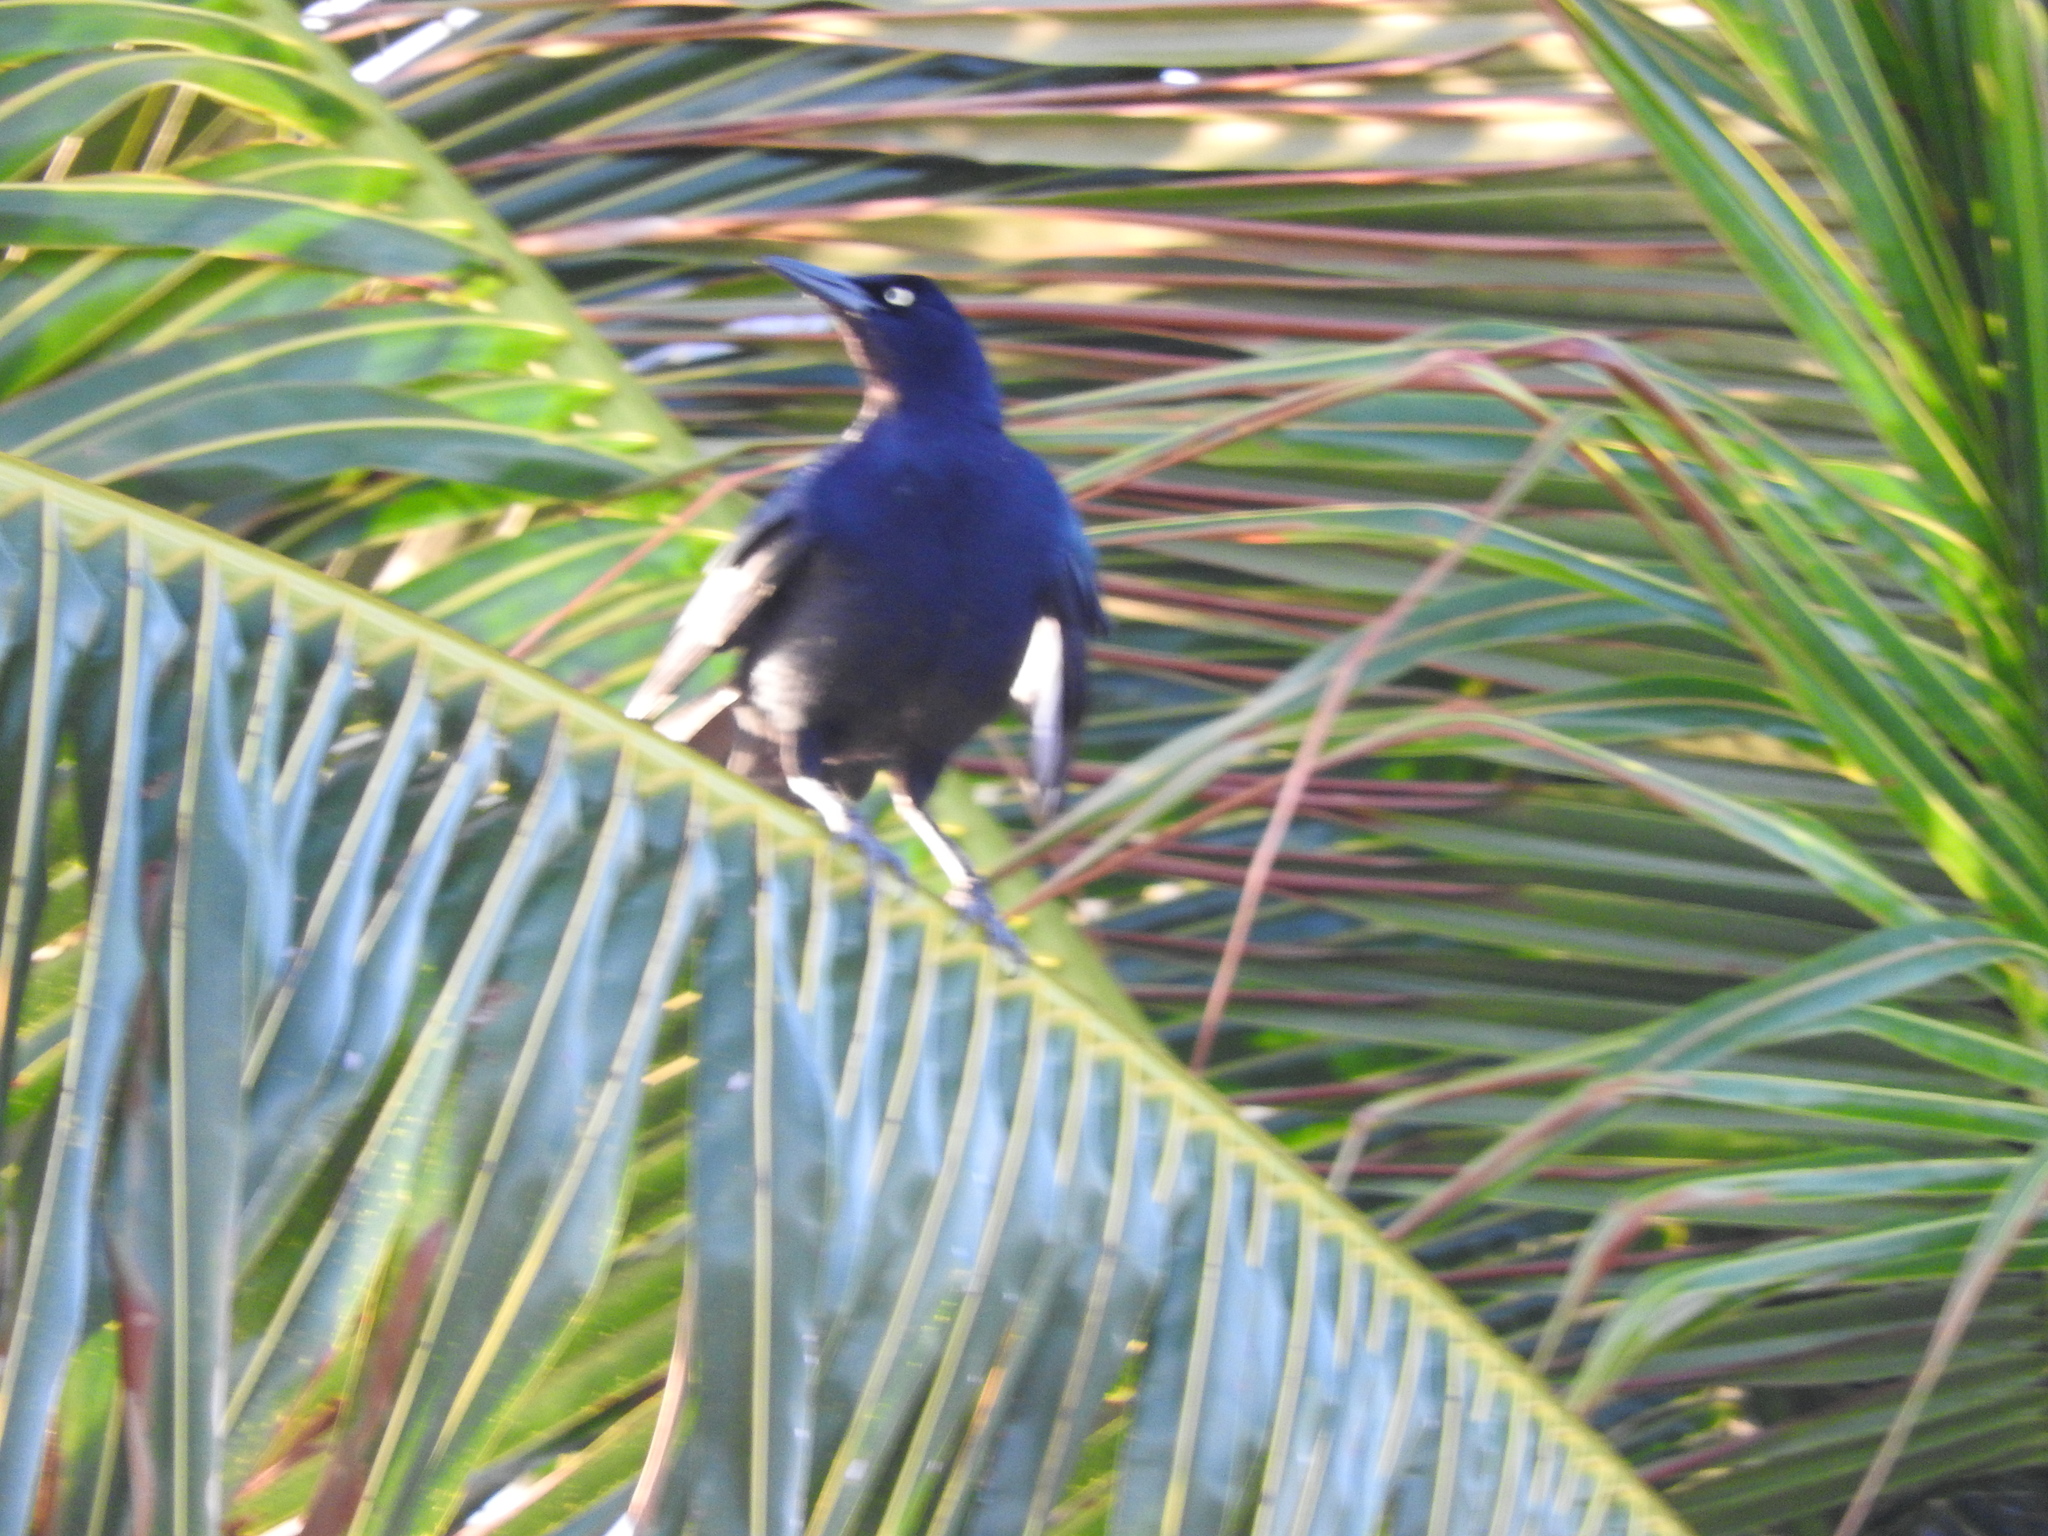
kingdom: Animalia
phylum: Chordata
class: Aves
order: Passeriformes
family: Icteridae
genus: Quiscalus
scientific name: Quiscalus mexicanus
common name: Great-tailed grackle
